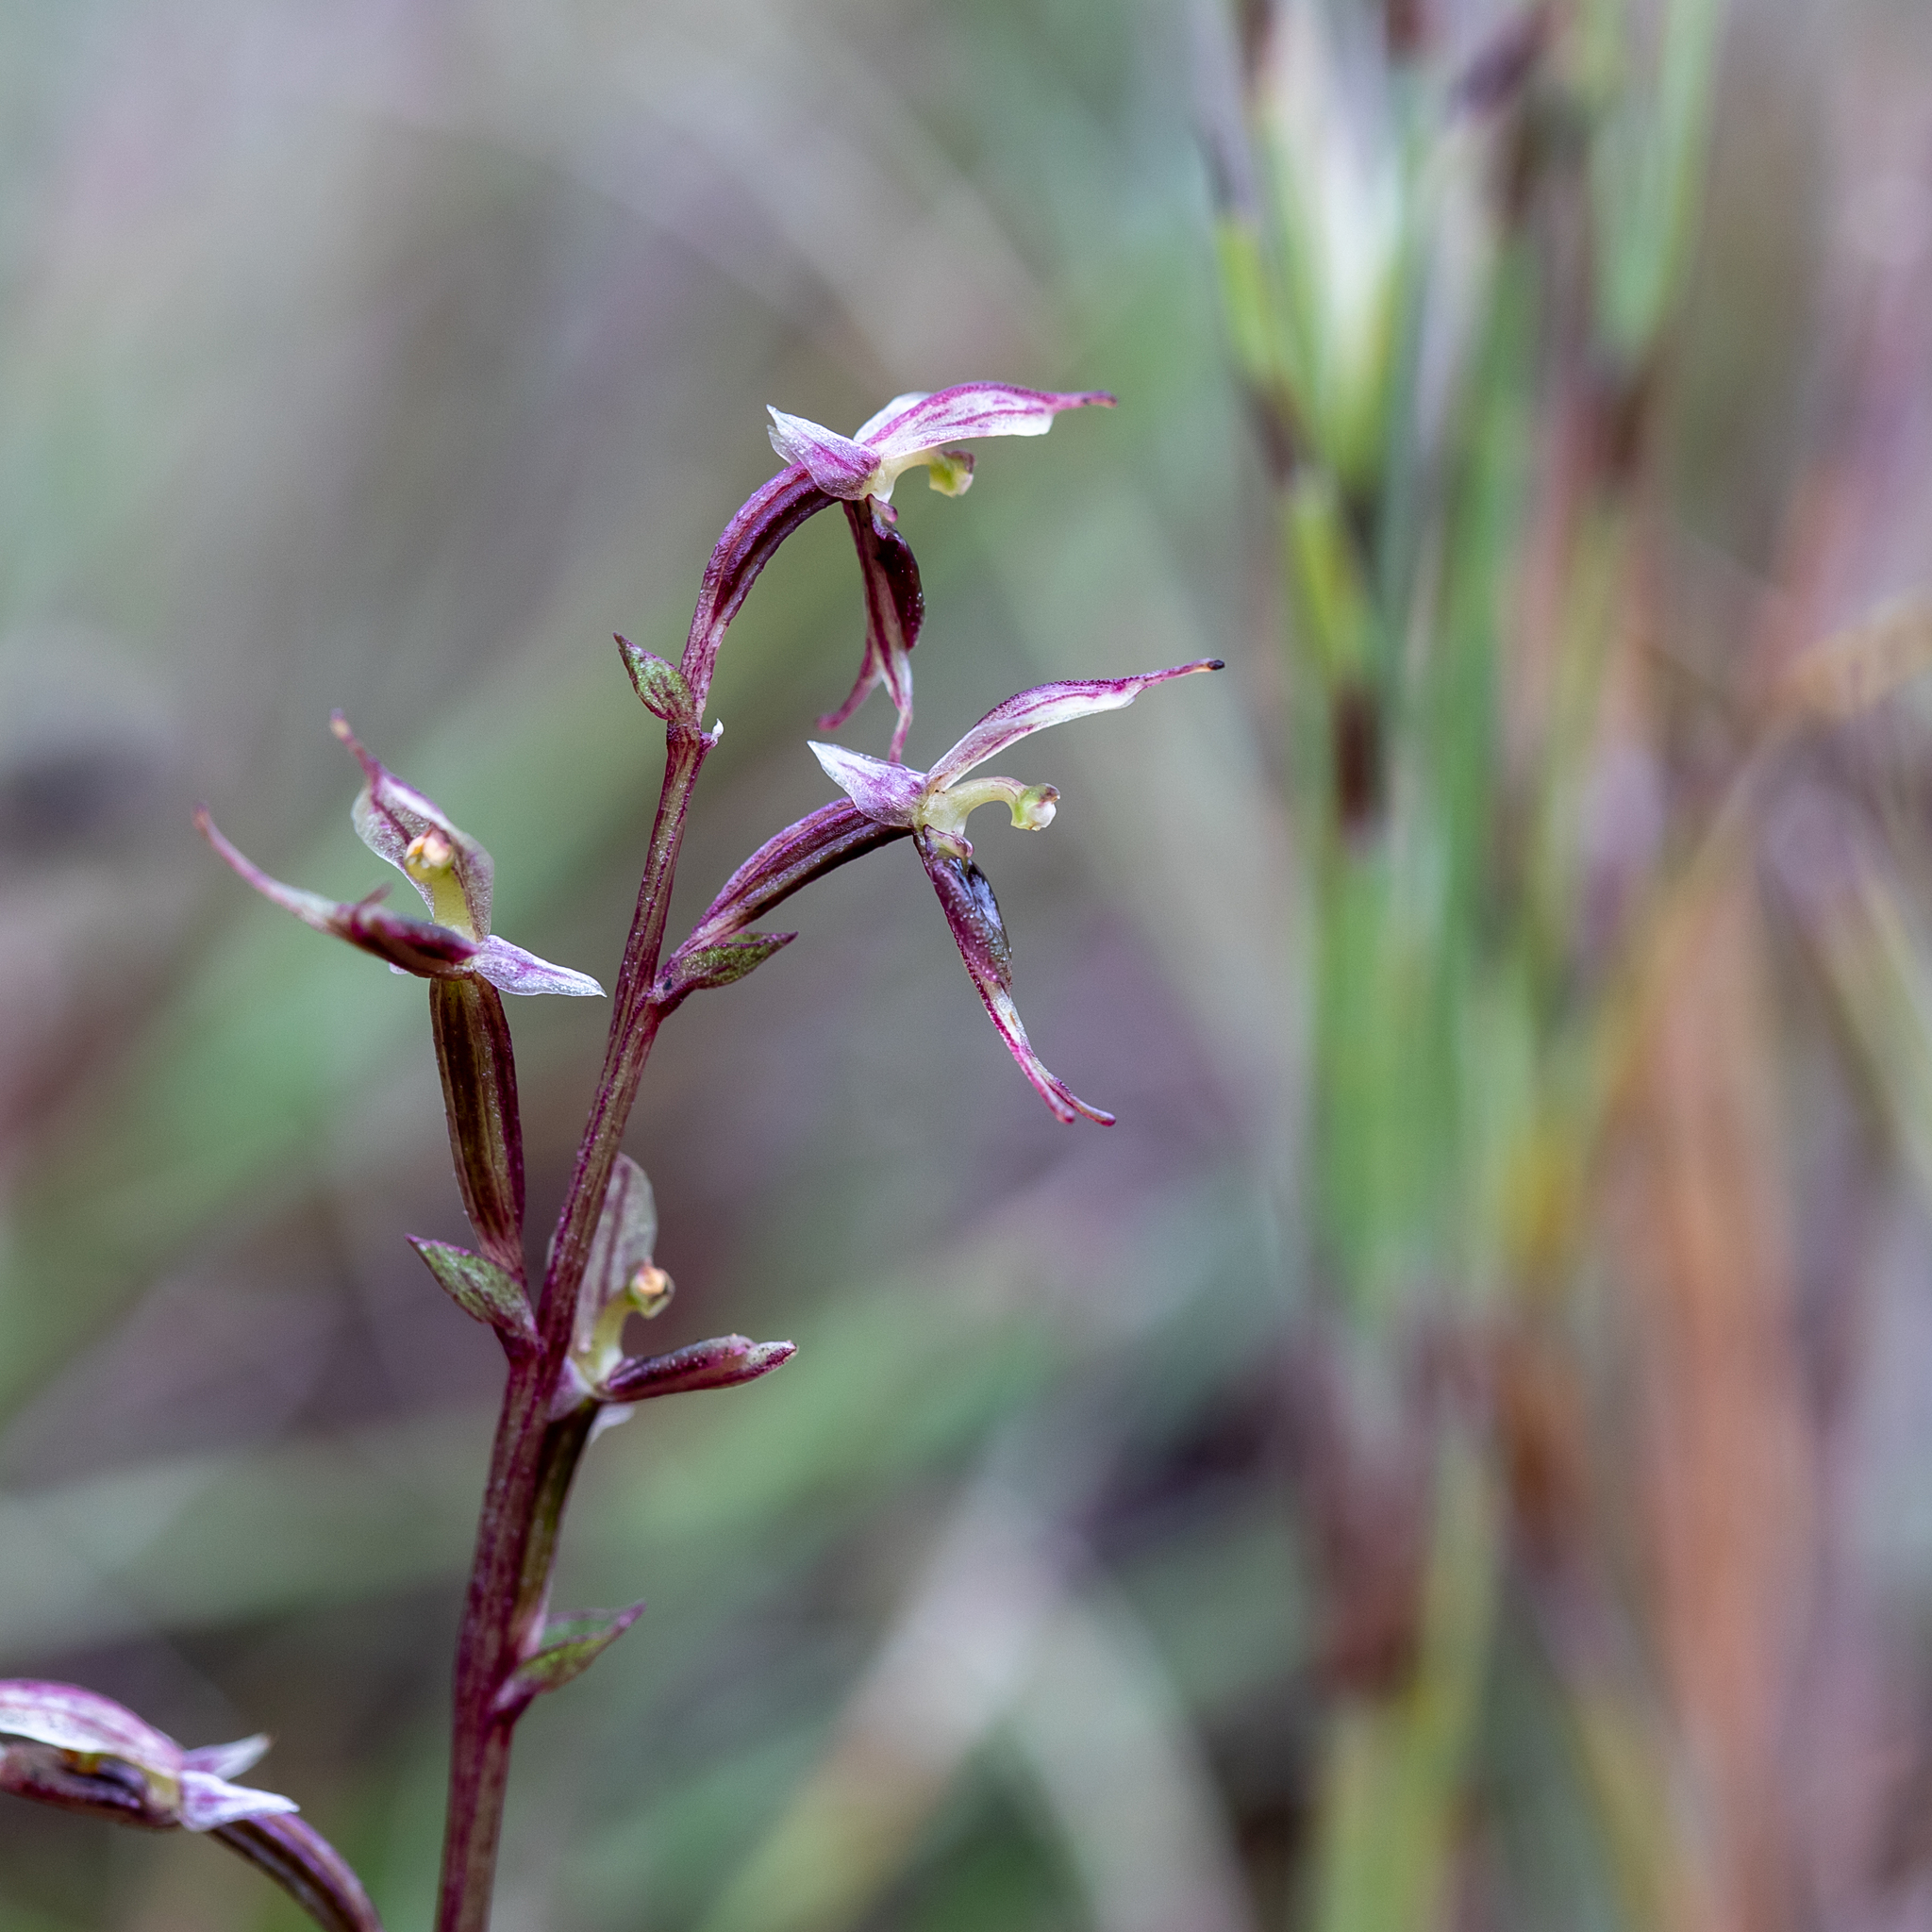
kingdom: Plantae
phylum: Tracheophyta
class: Liliopsida
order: Asparagales
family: Orchidaceae
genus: Acianthus
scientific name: Acianthus pusillus
